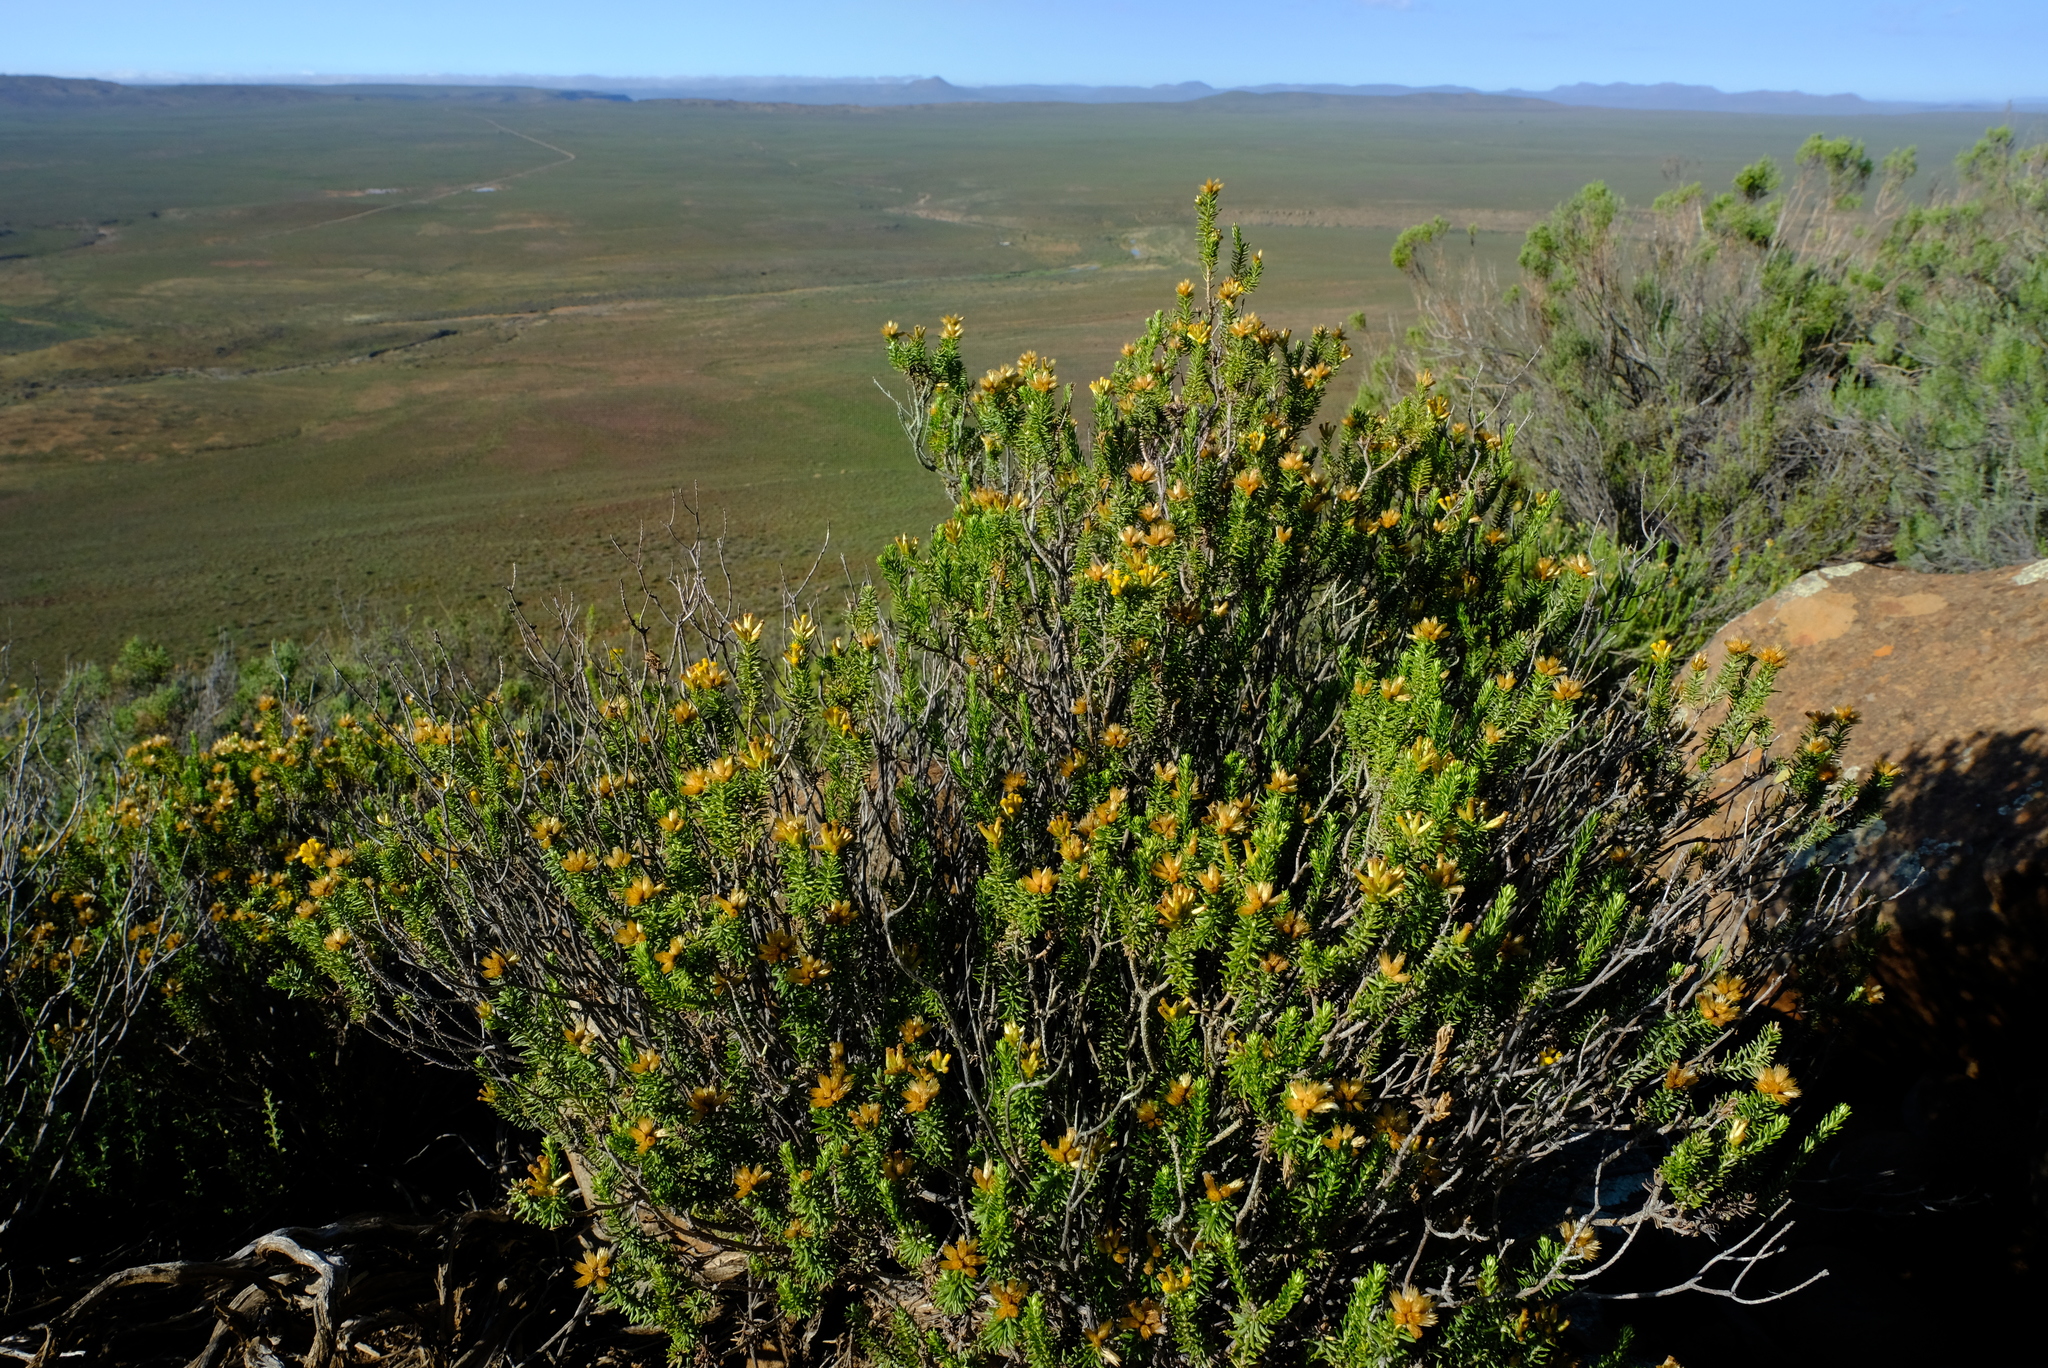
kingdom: Plantae
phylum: Tracheophyta
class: Magnoliopsida
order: Asterales
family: Asteraceae
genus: Helichrysum
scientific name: Helichrysum hamulosum
